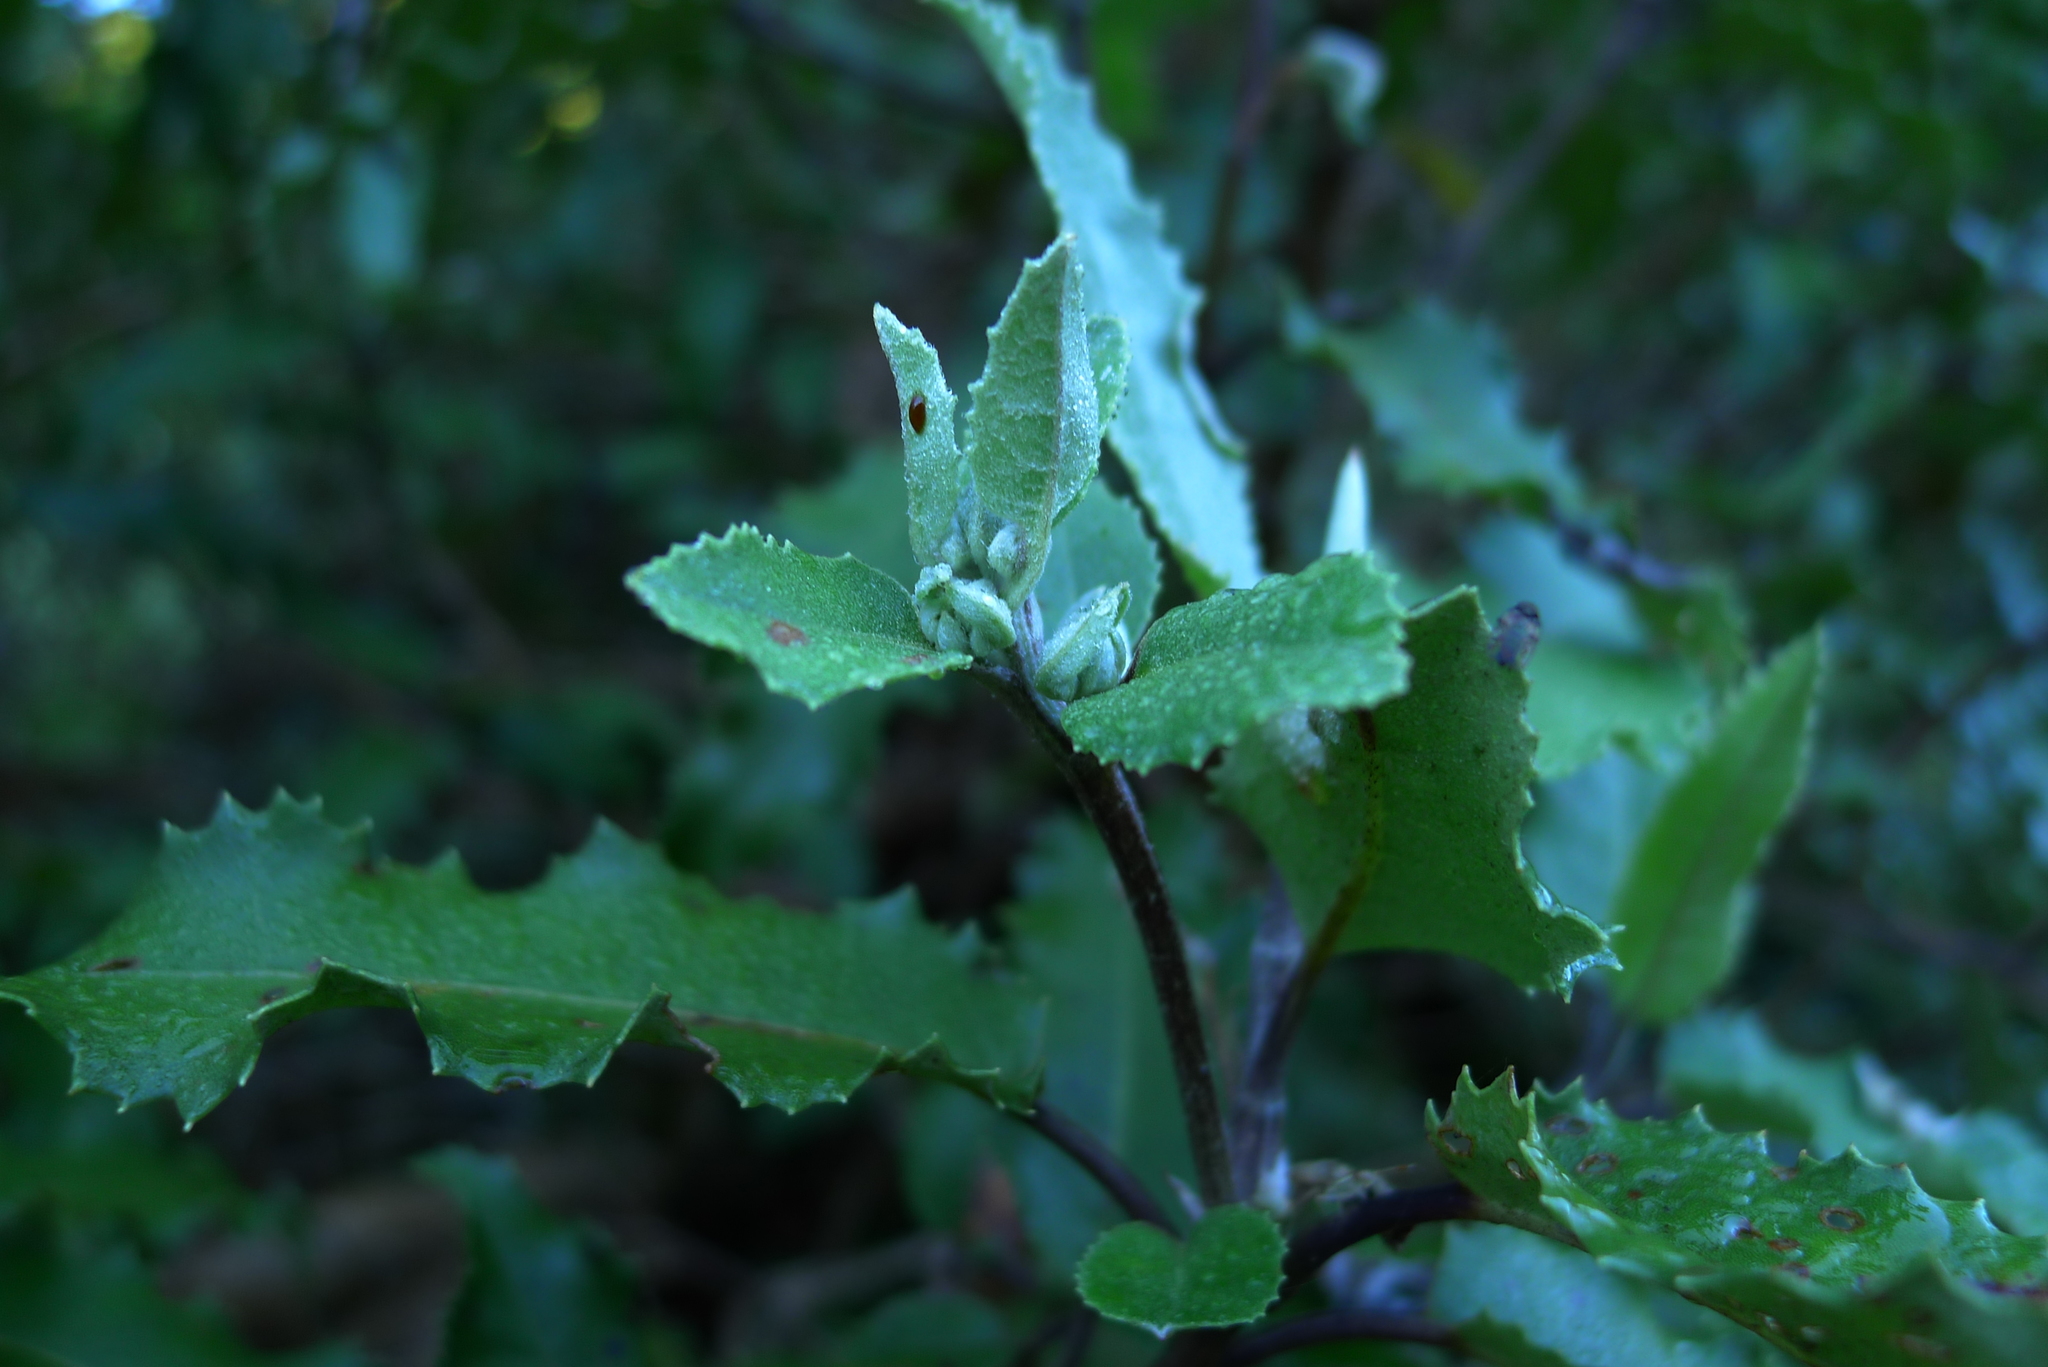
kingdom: Plantae
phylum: Tracheophyta
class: Magnoliopsida
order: Asterales
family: Asteraceae
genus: Olearia
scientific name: Olearia ilicifolia
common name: Maori-holly
